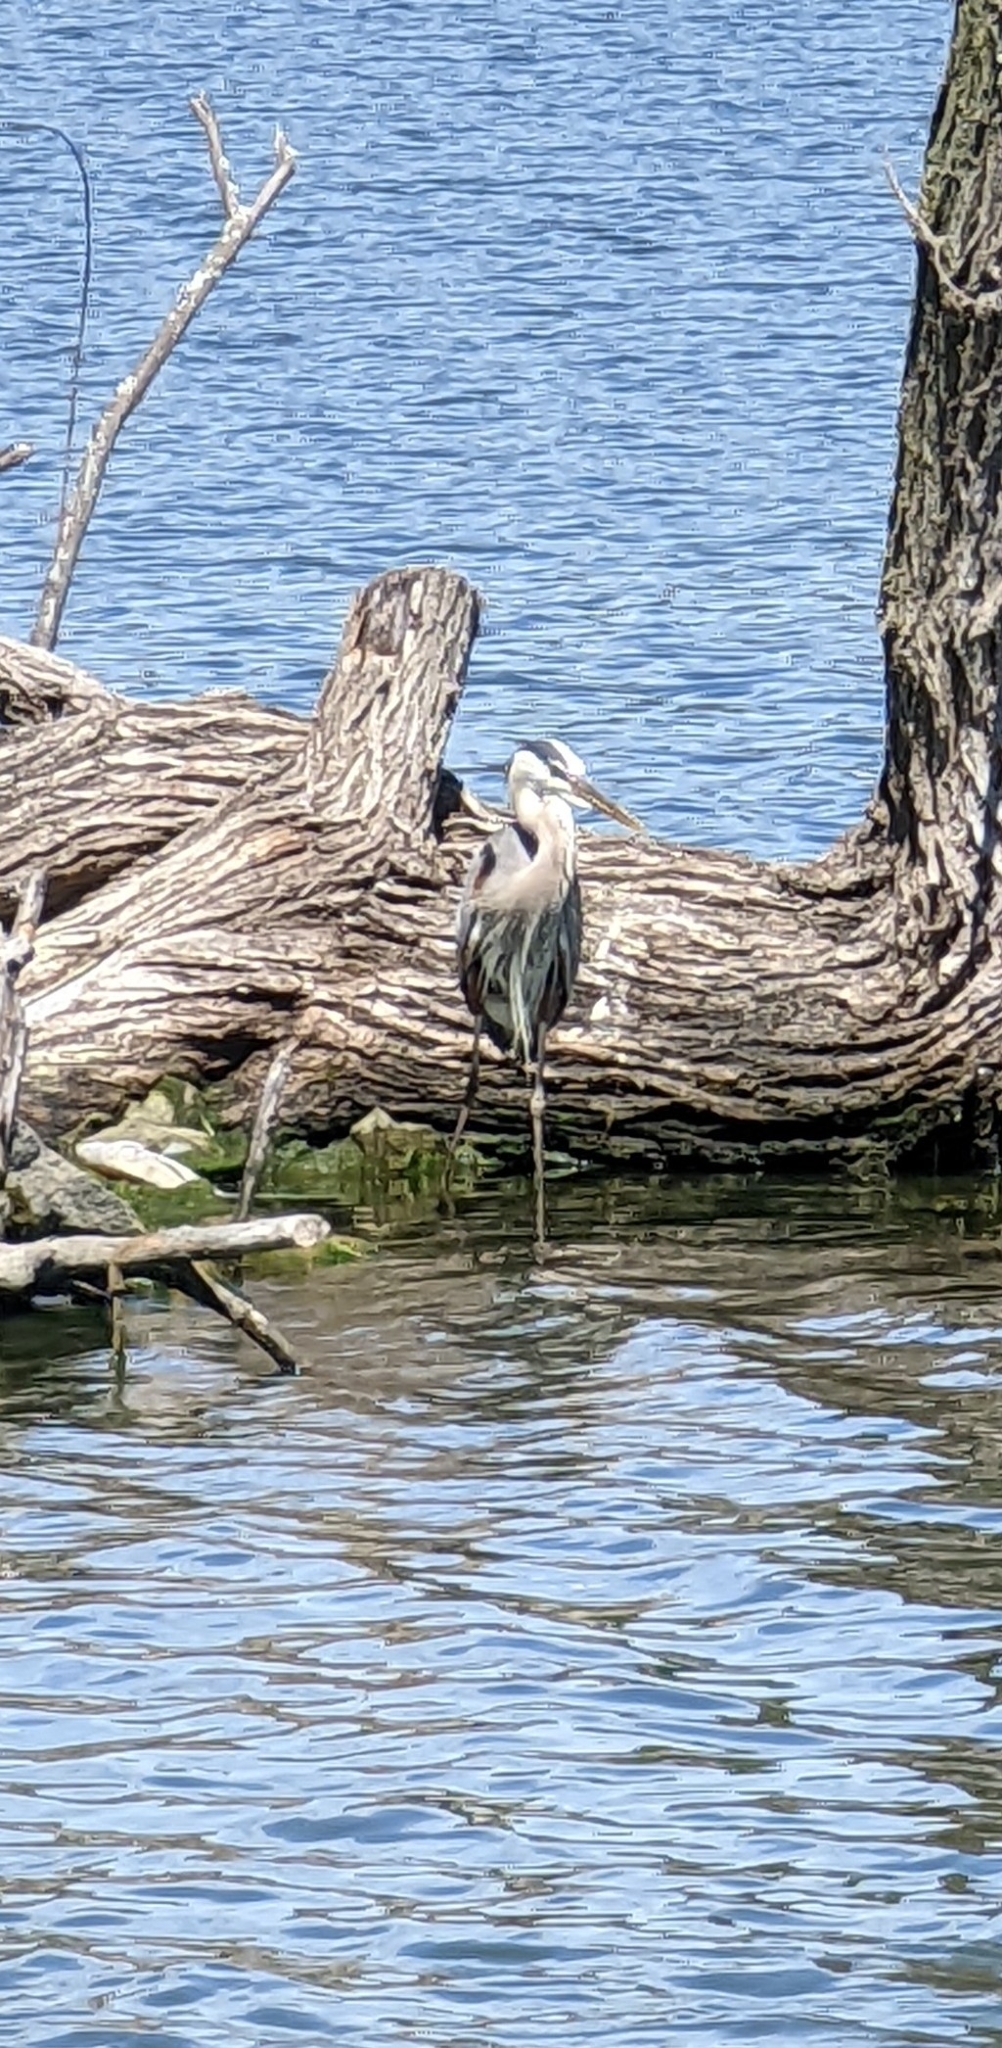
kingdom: Animalia
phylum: Chordata
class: Aves
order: Pelecaniformes
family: Ardeidae
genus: Ardea
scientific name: Ardea herodias
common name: Great blue heron
